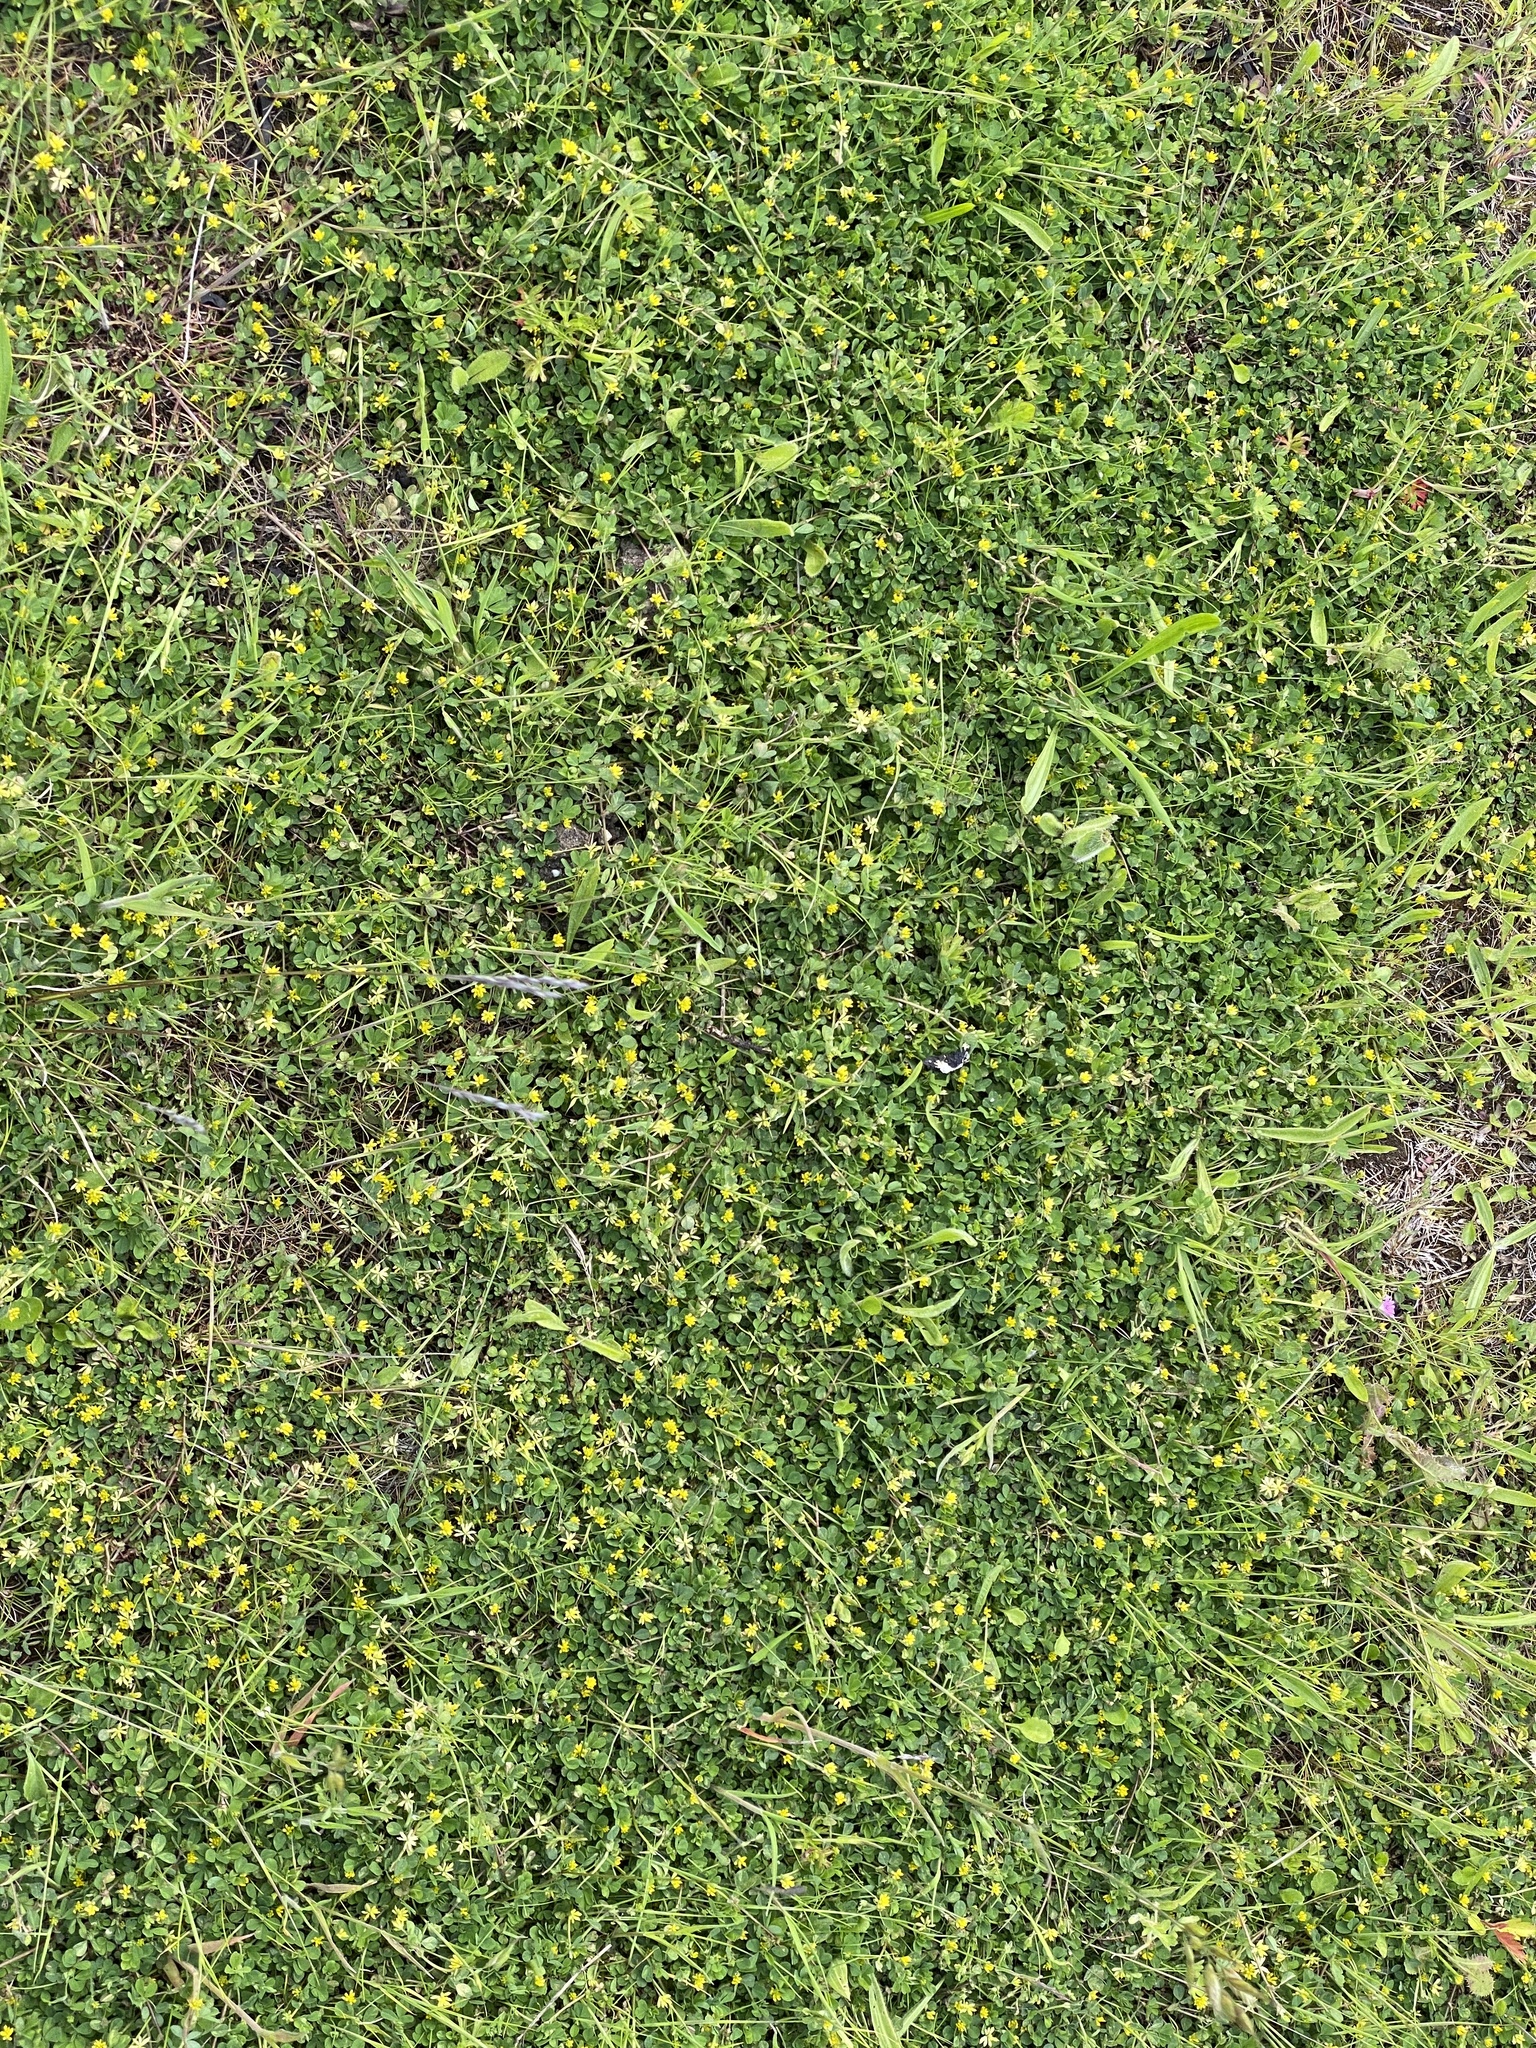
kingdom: Plantae
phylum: Tracheophyta
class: Magnoliopsida
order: Fabales
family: Fabaceae
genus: Trifolium
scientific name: Trifolium dubium
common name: Suckling clover
